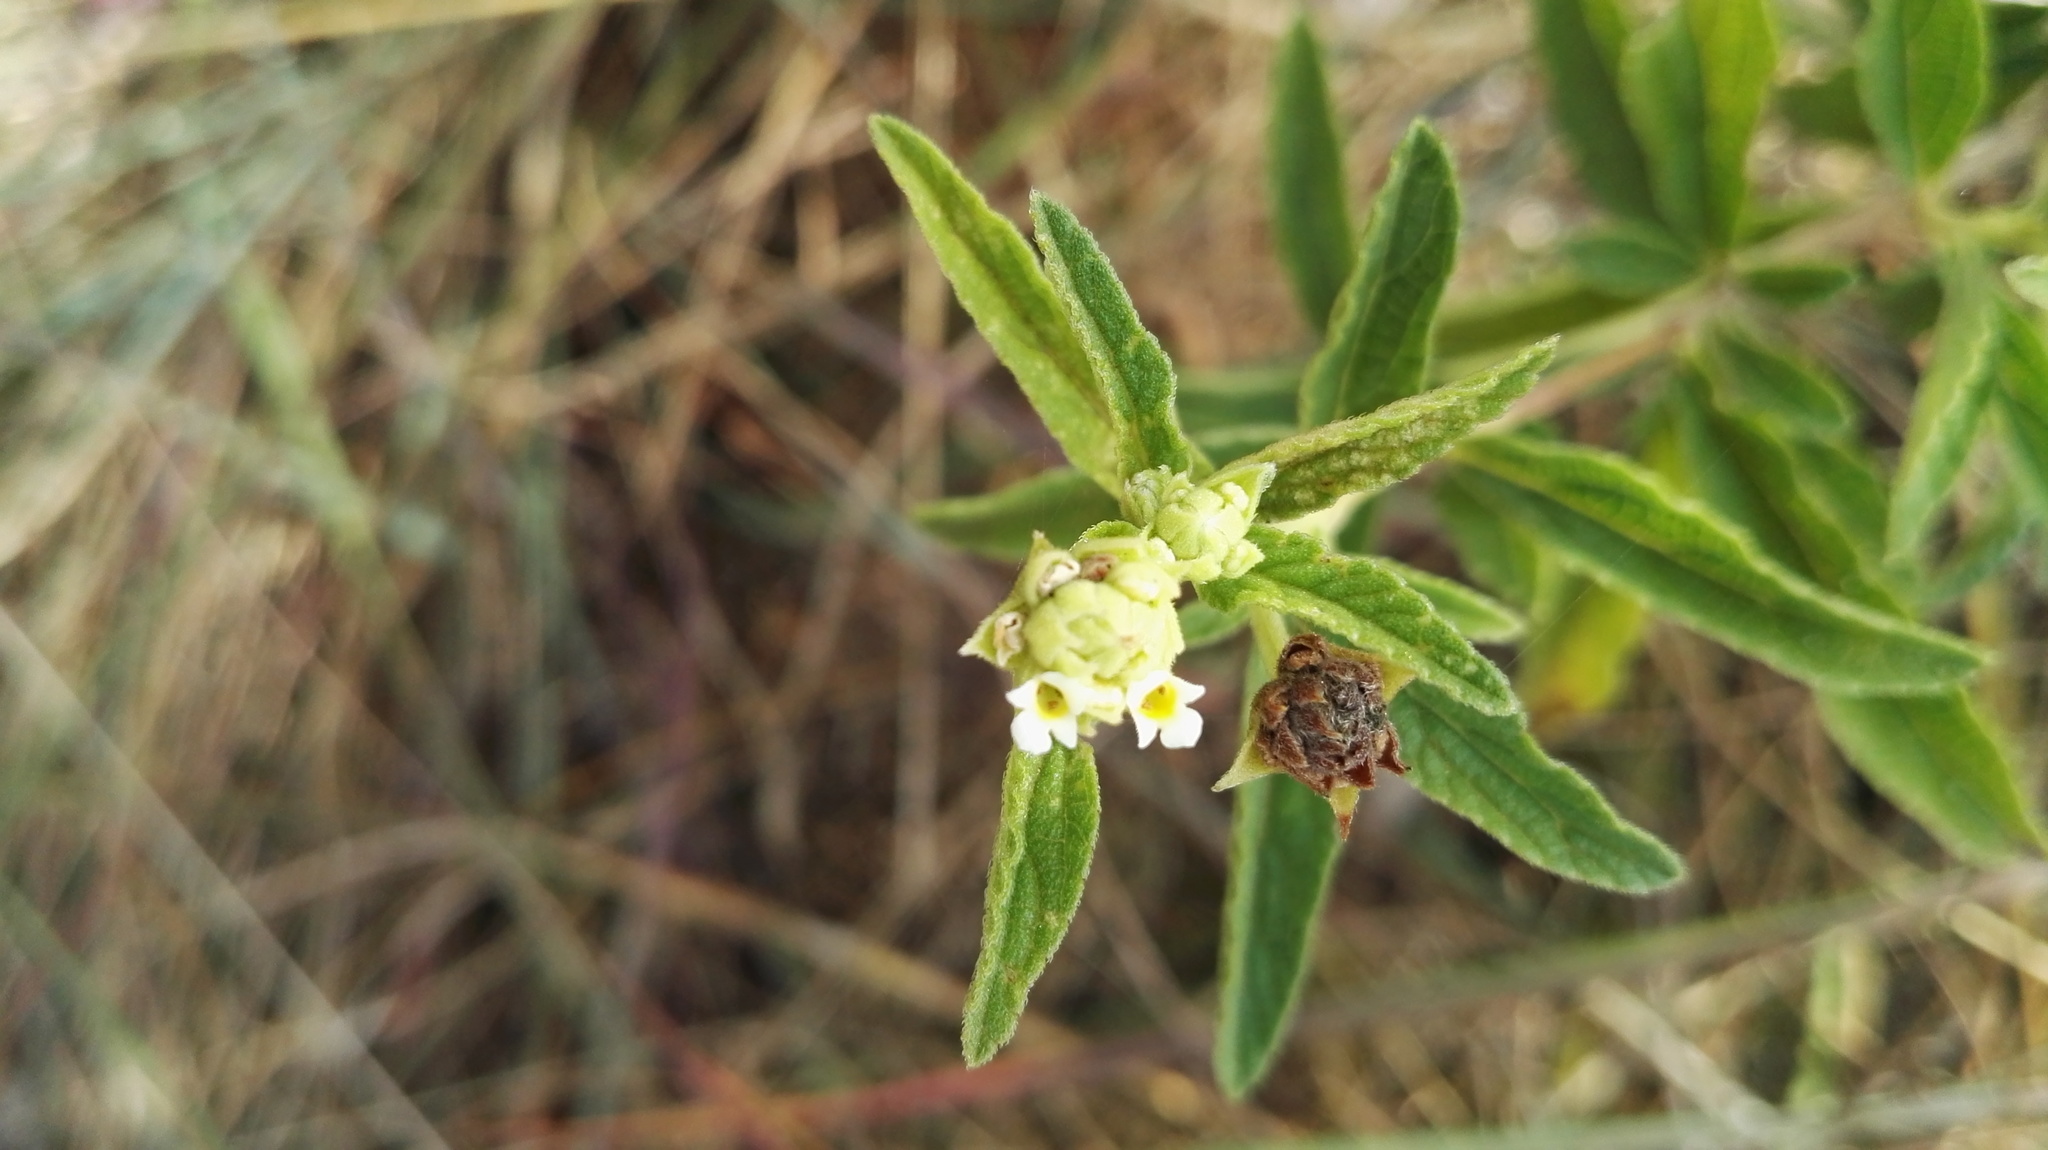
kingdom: Plantae
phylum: Tracheophyta
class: Magnoliopsida
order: Lamiales
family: Verbenaceae
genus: Lippia
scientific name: Lippia javanica
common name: Lemonbush
